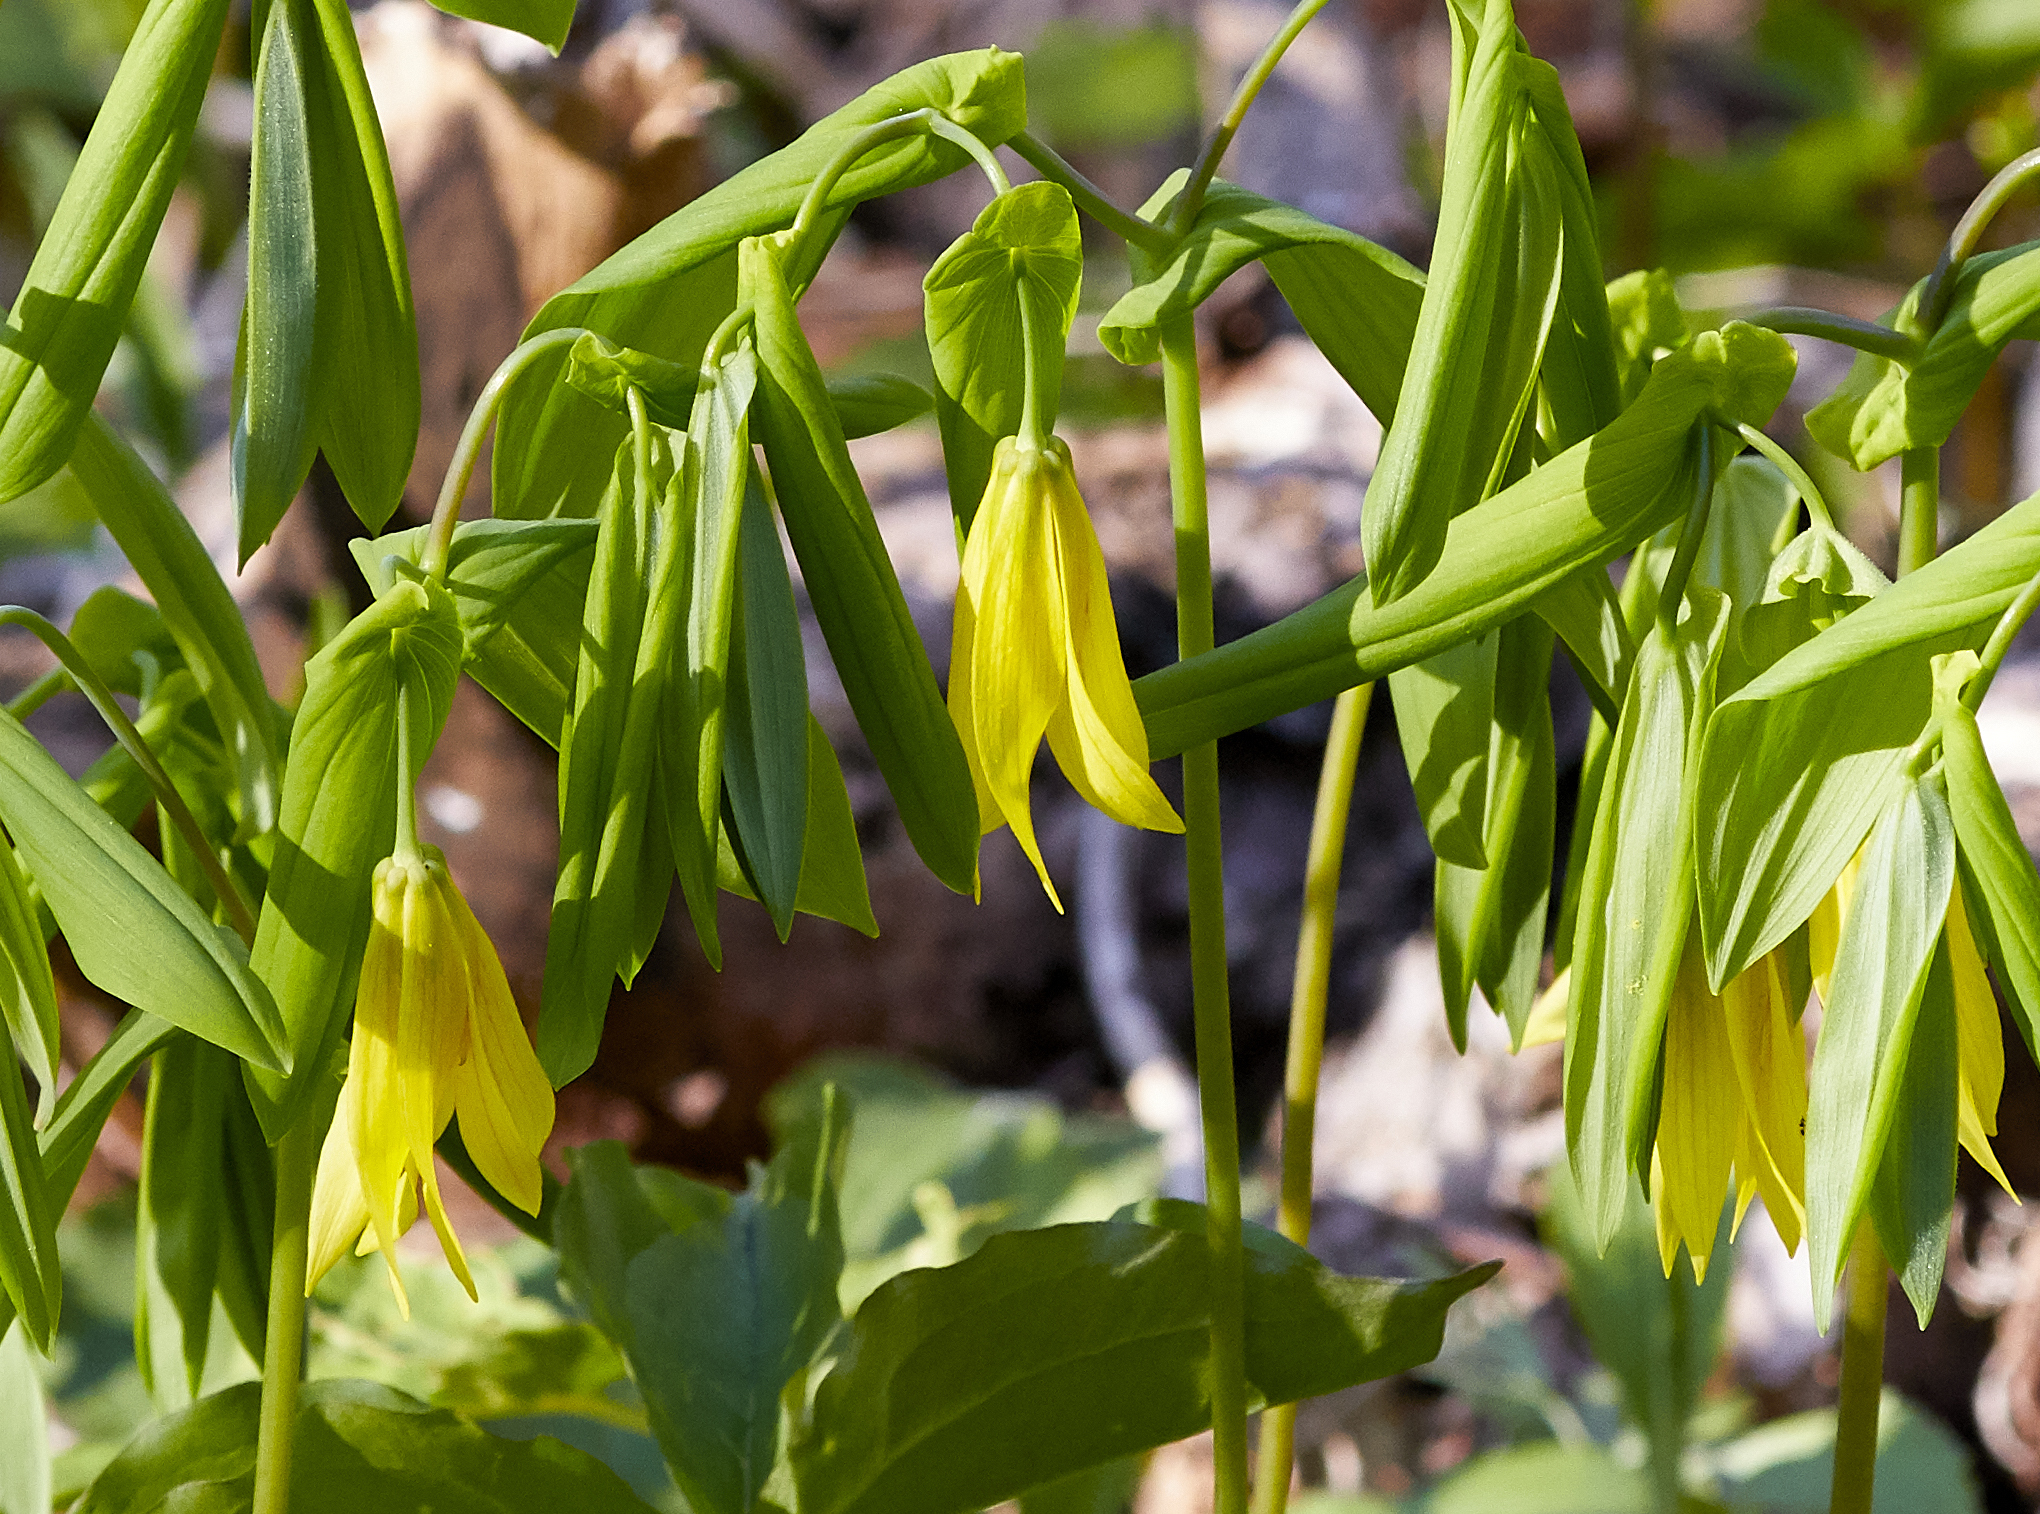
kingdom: Plantae
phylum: Tracheophyta
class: Liliopsida
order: Liliales
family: Colchicaceae
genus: Uvularia
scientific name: Uvularia grandiflora
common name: Bellwort
